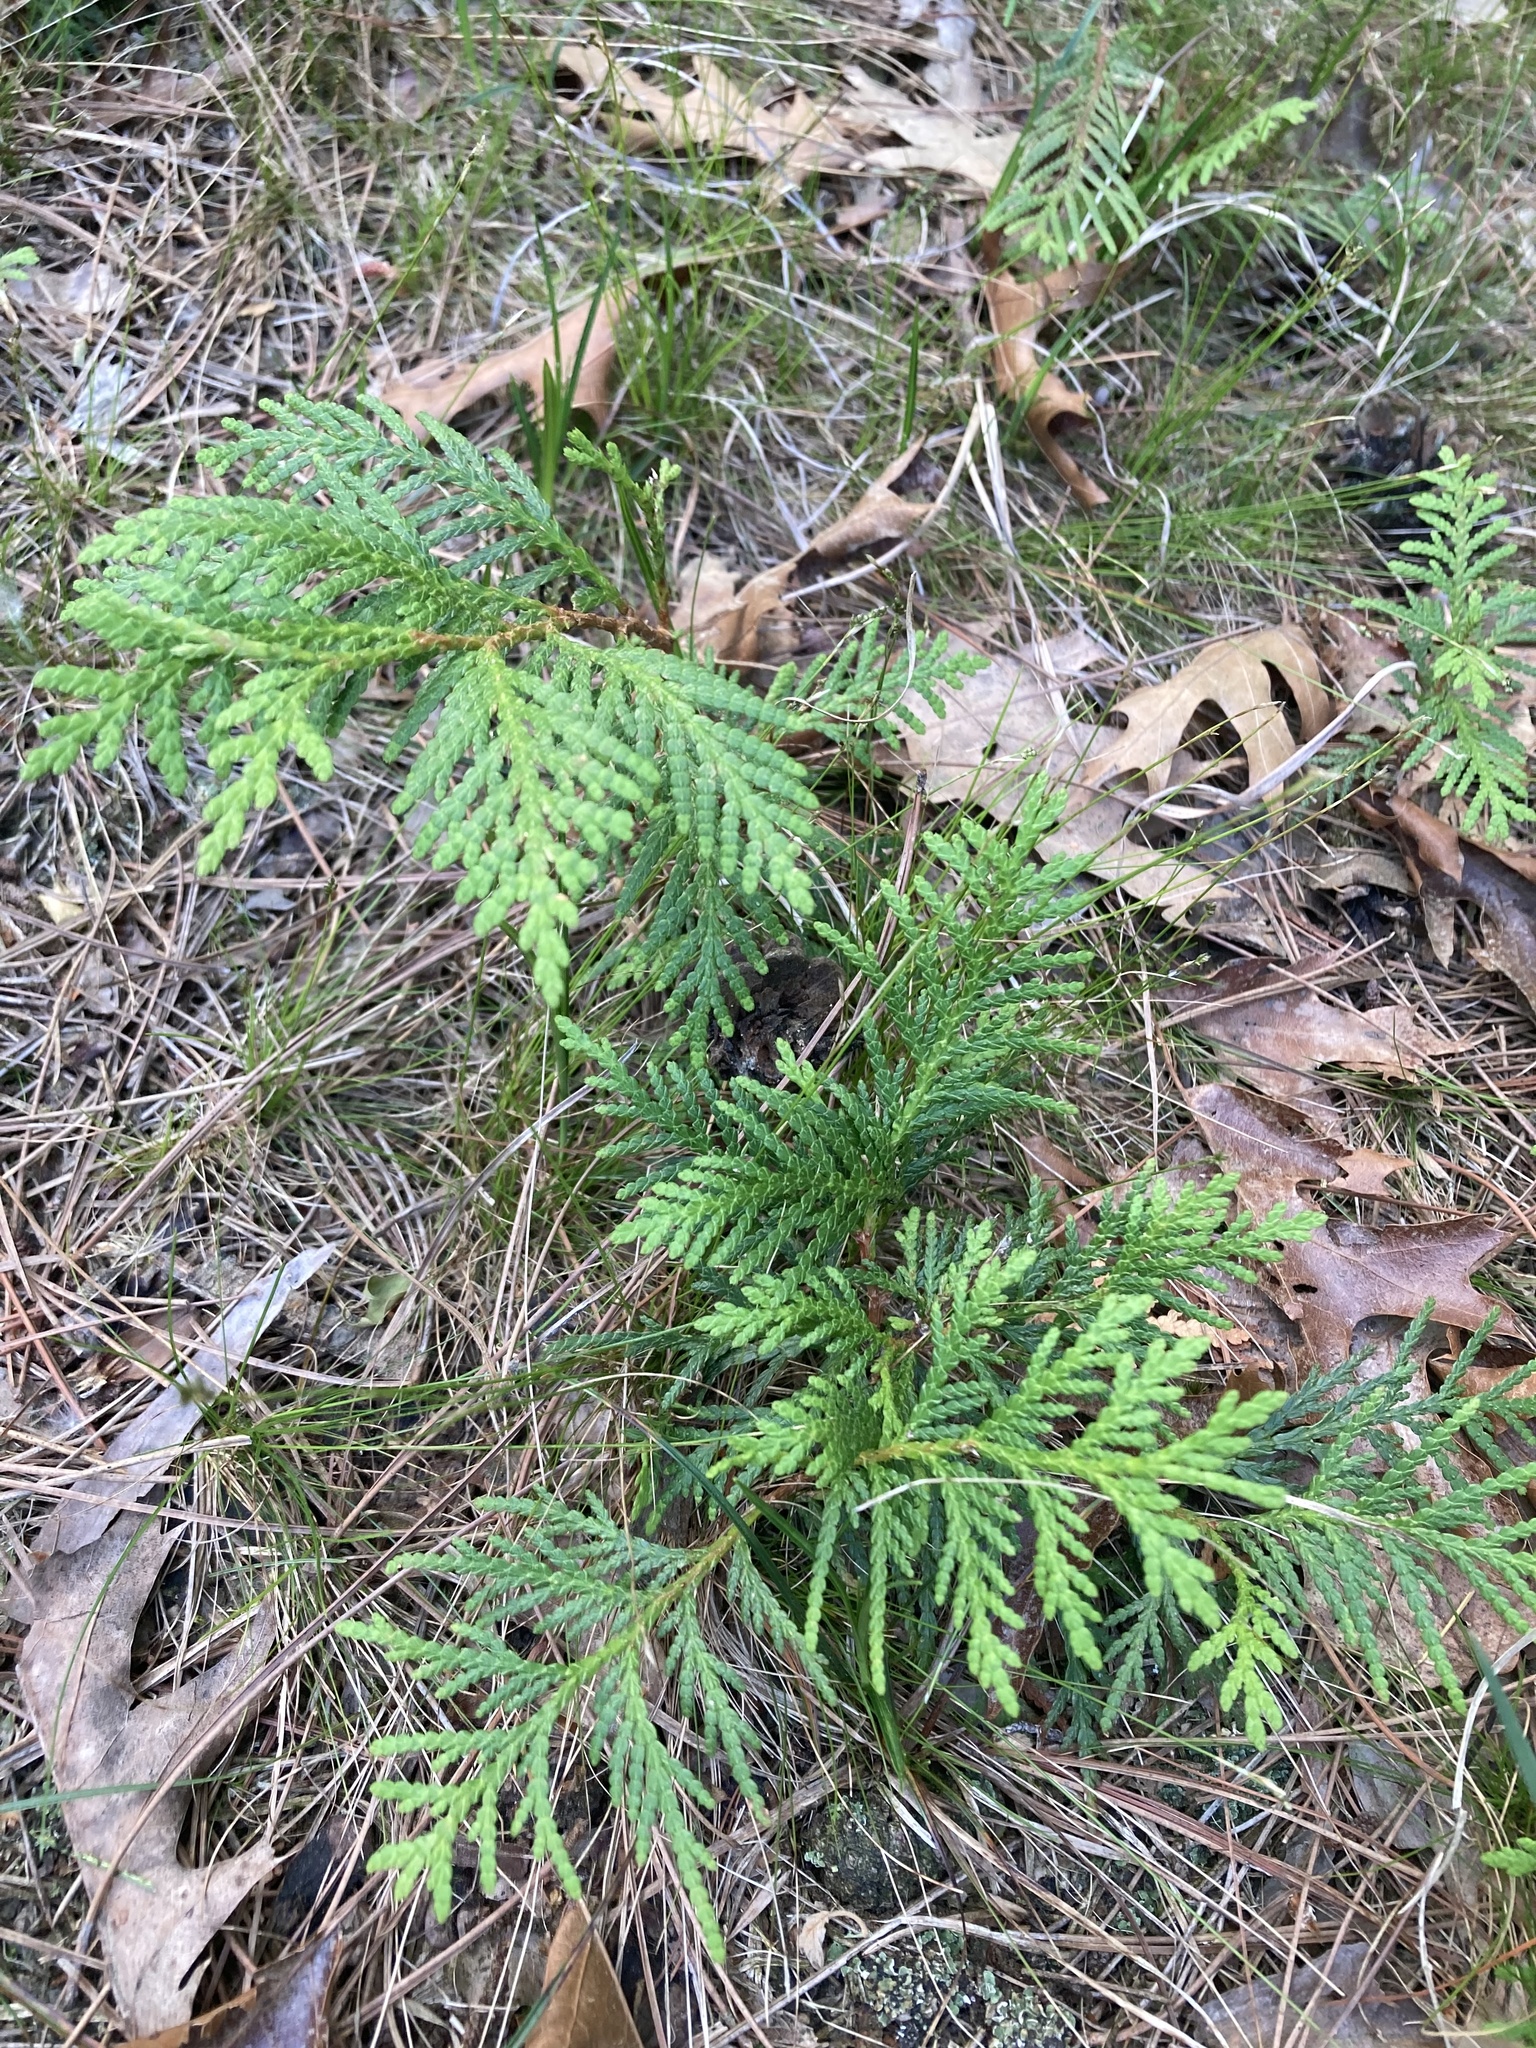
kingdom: Plantae
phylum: Tracheophyta
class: Pinopsida
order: Pinales
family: Cupressaceae
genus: Thuja
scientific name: Thuja occidentalis
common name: Northern white-cedar
